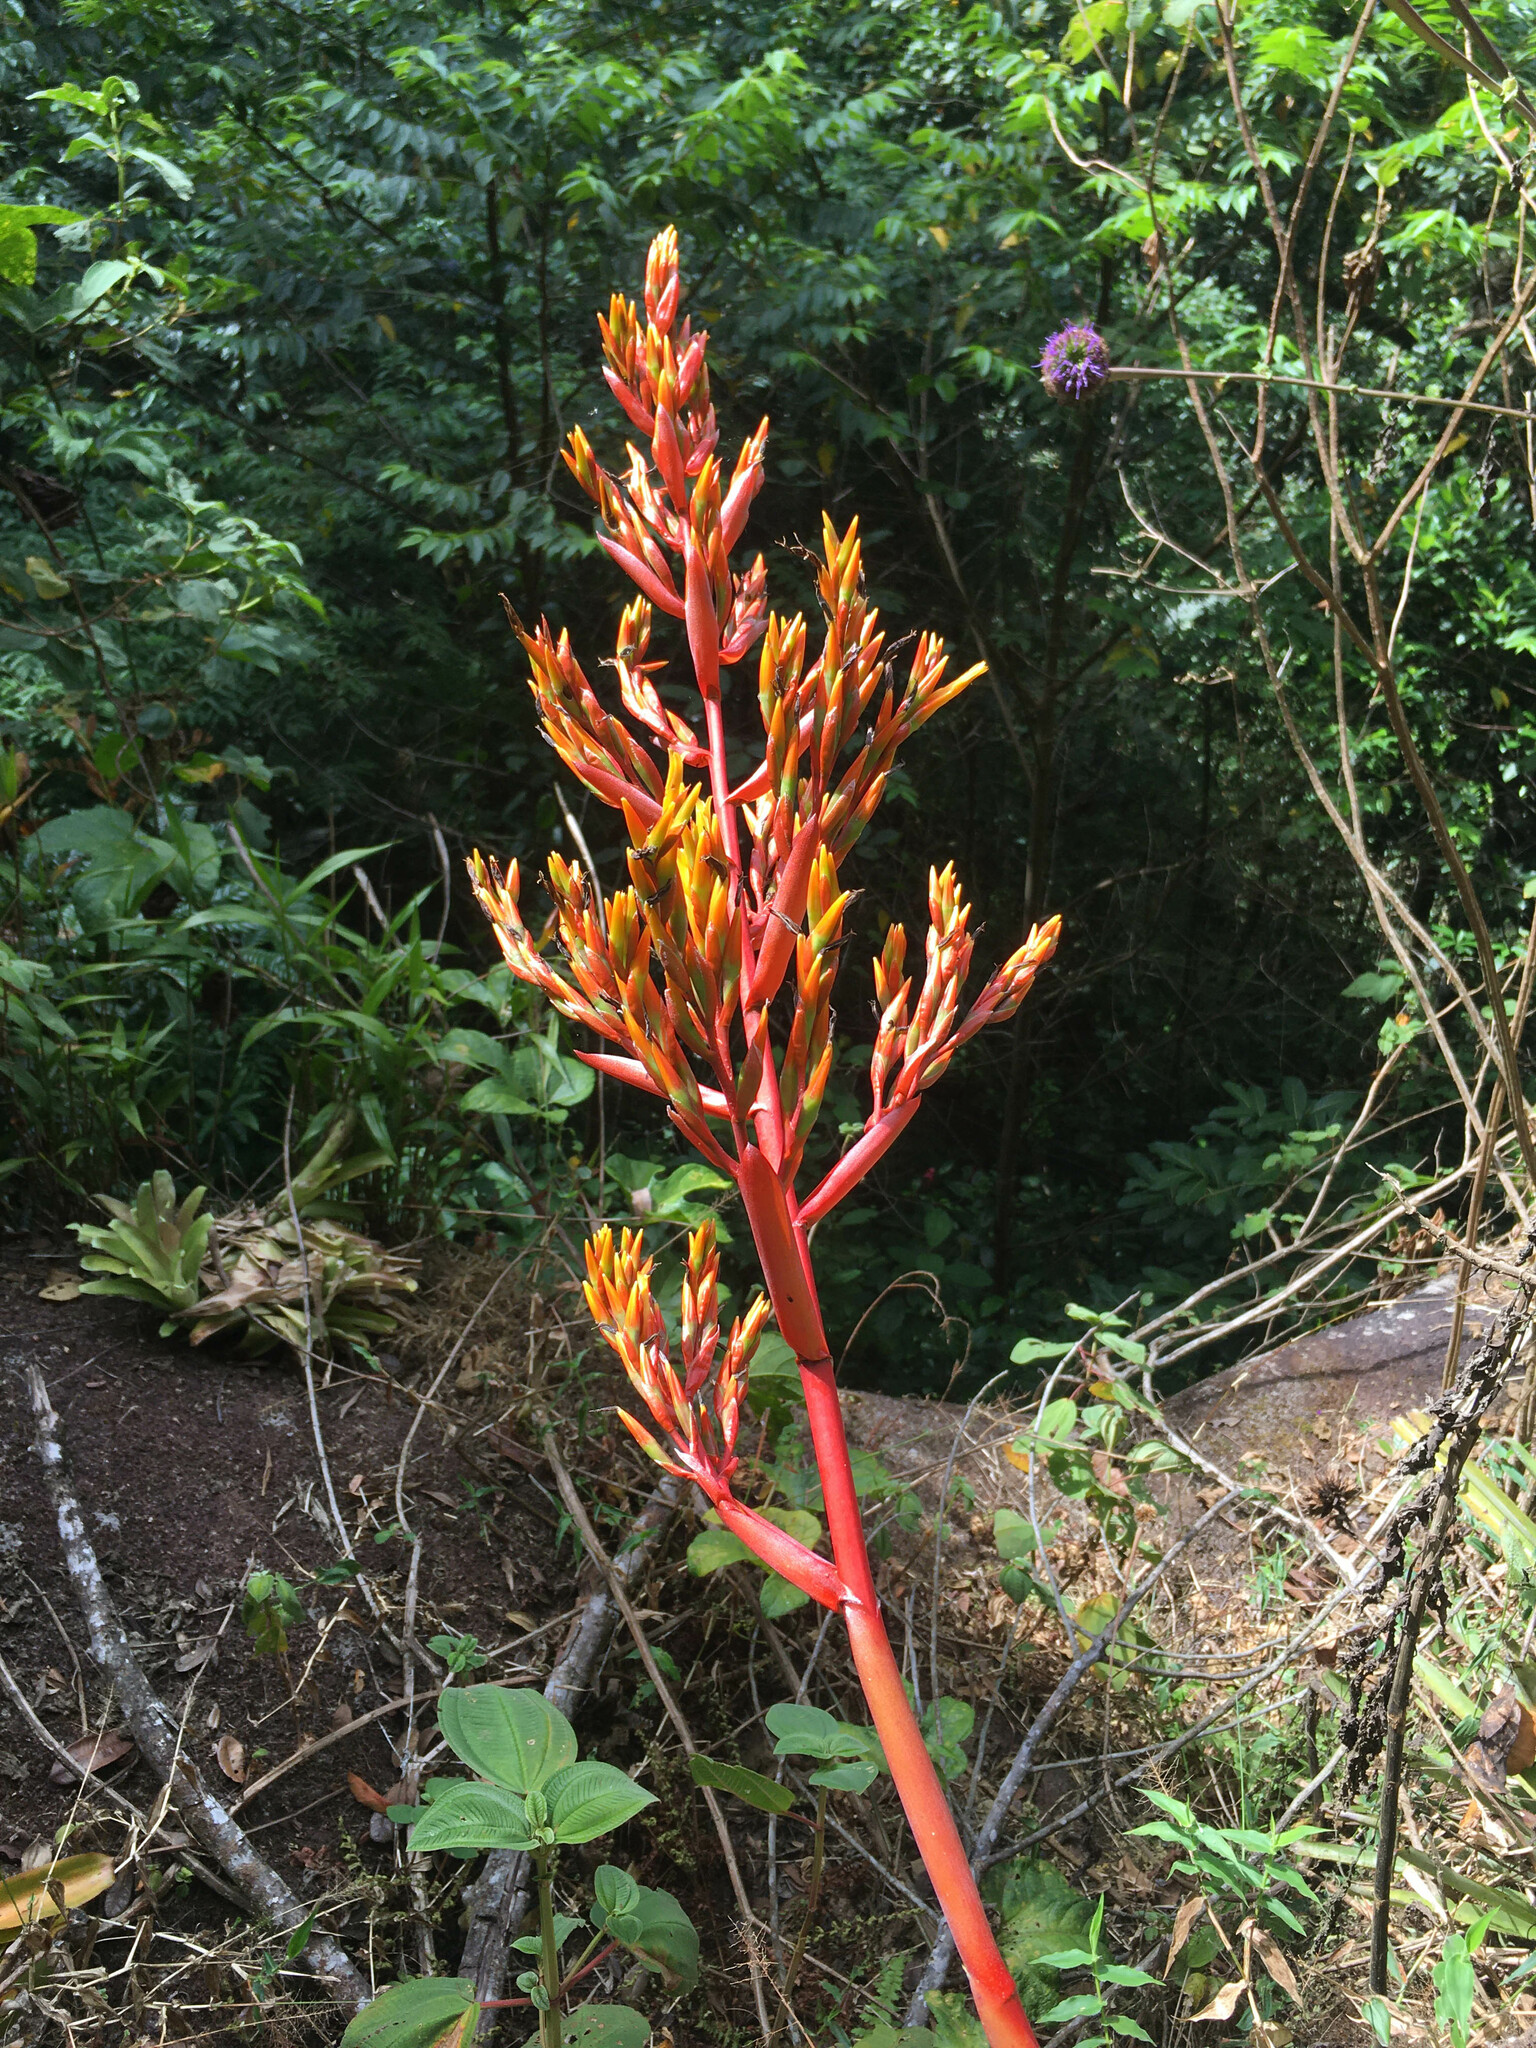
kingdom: Plantae
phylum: Tracheophyta
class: Liliopsida
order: Poales
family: Bromeliaceae
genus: Aechmea
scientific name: Aechmea guainumbiorum
